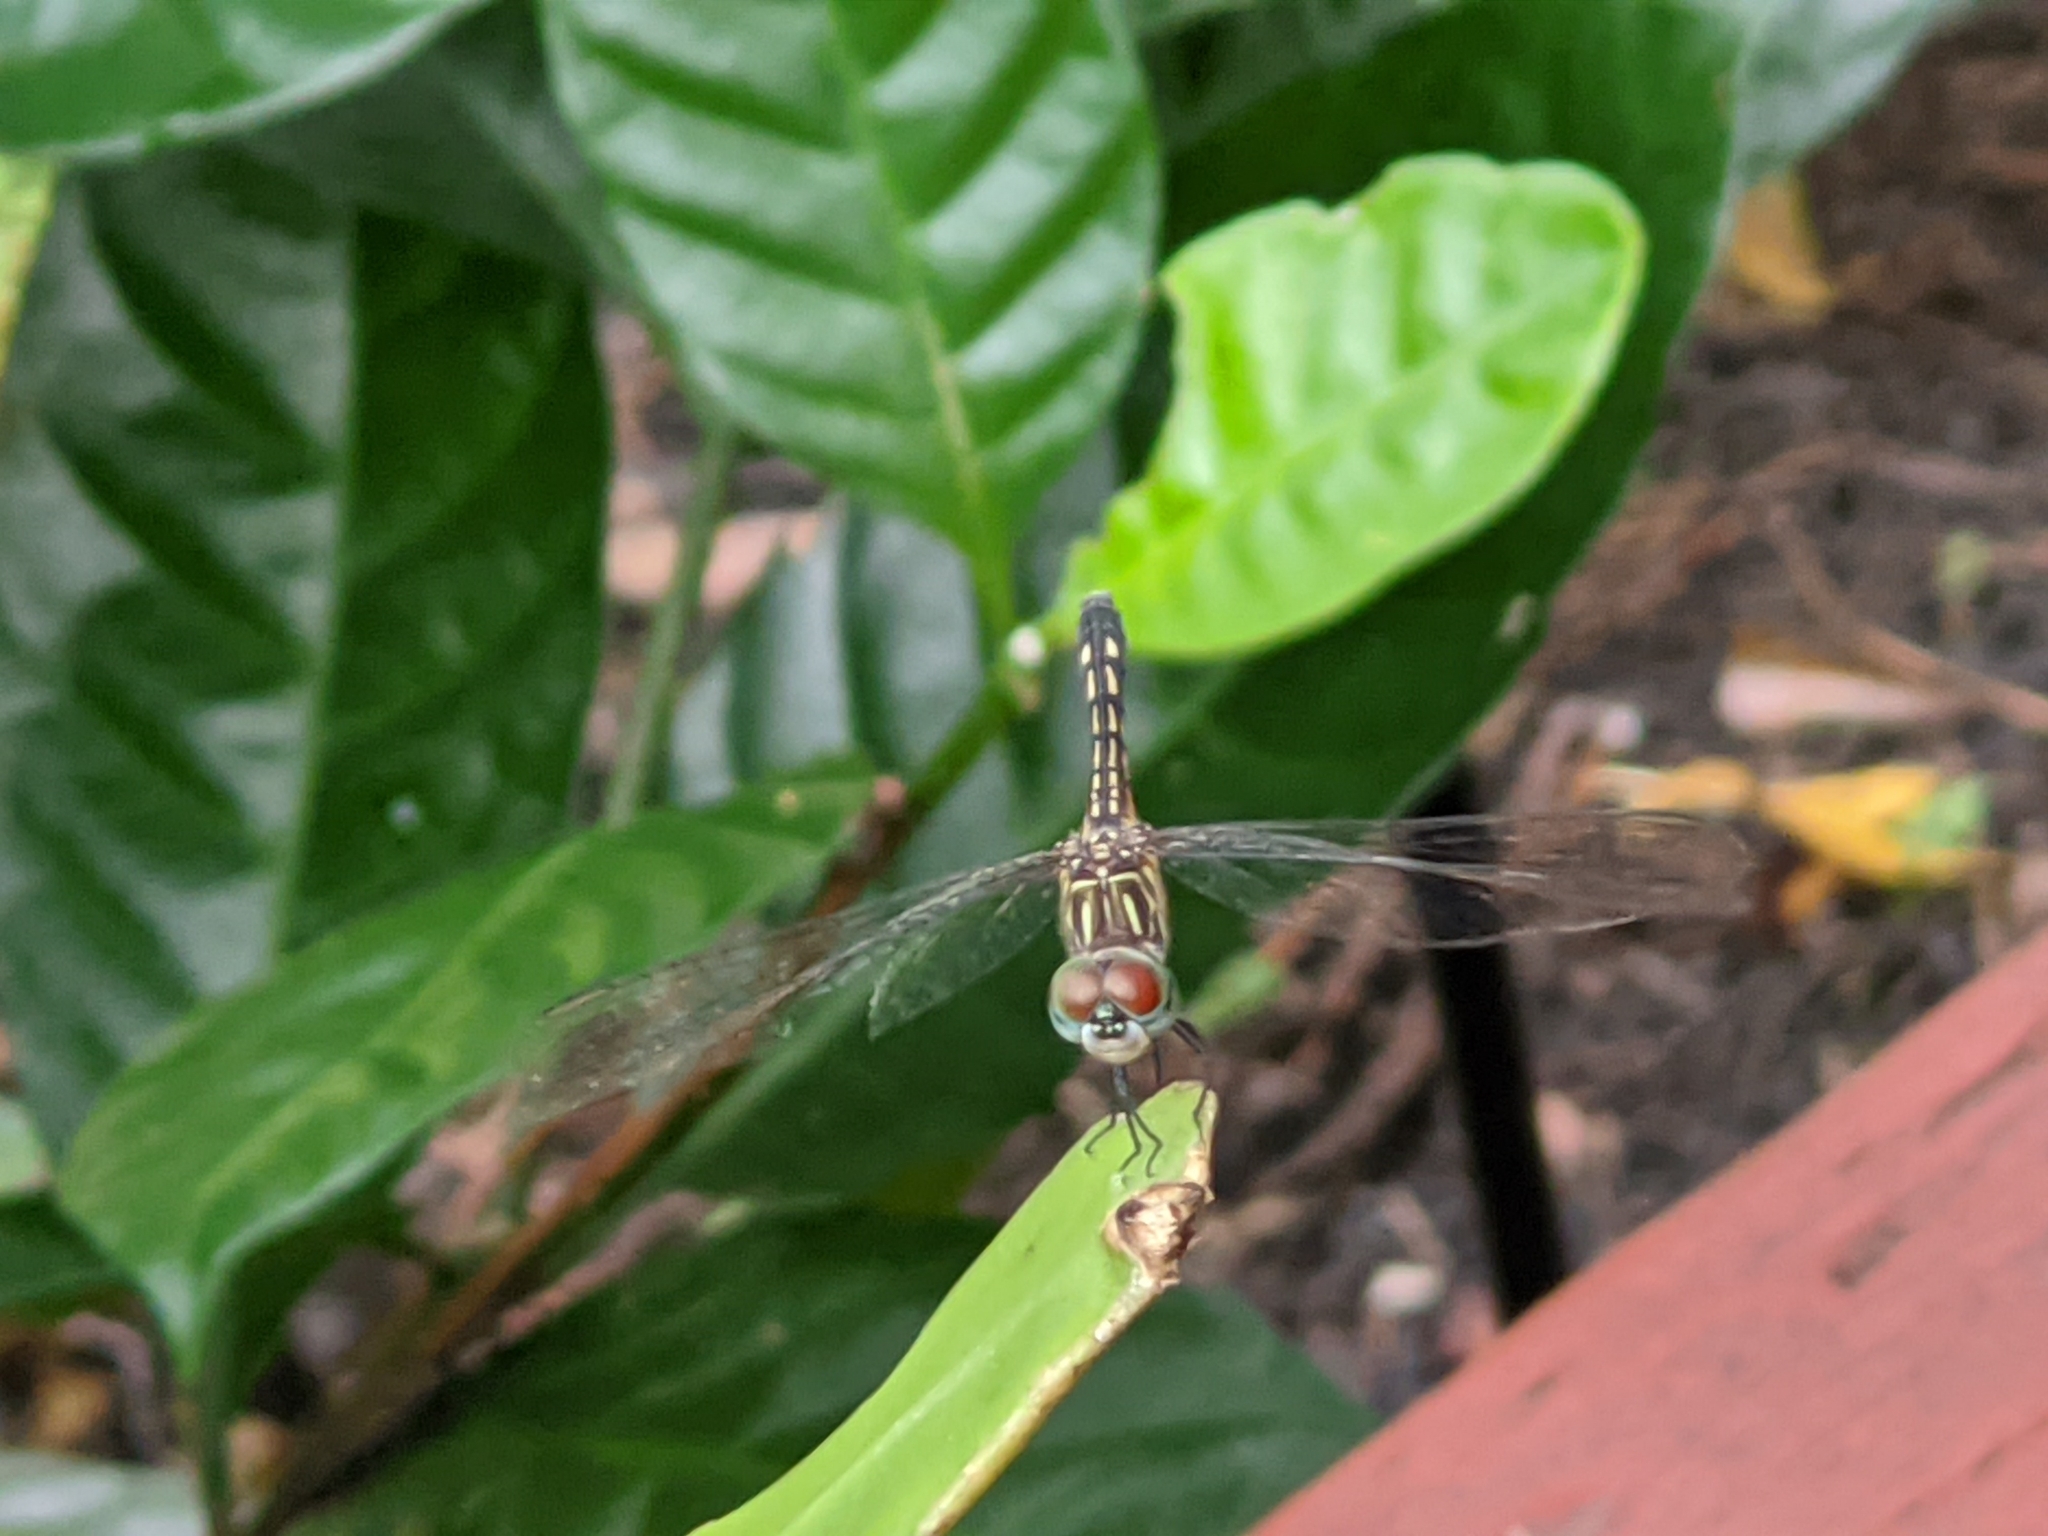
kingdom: Animalia
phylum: Arthropoda
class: Insecta
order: Odonata
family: Libellulidae
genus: Pachydiplax
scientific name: Pachydiplax longipennis
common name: Blue dasher
